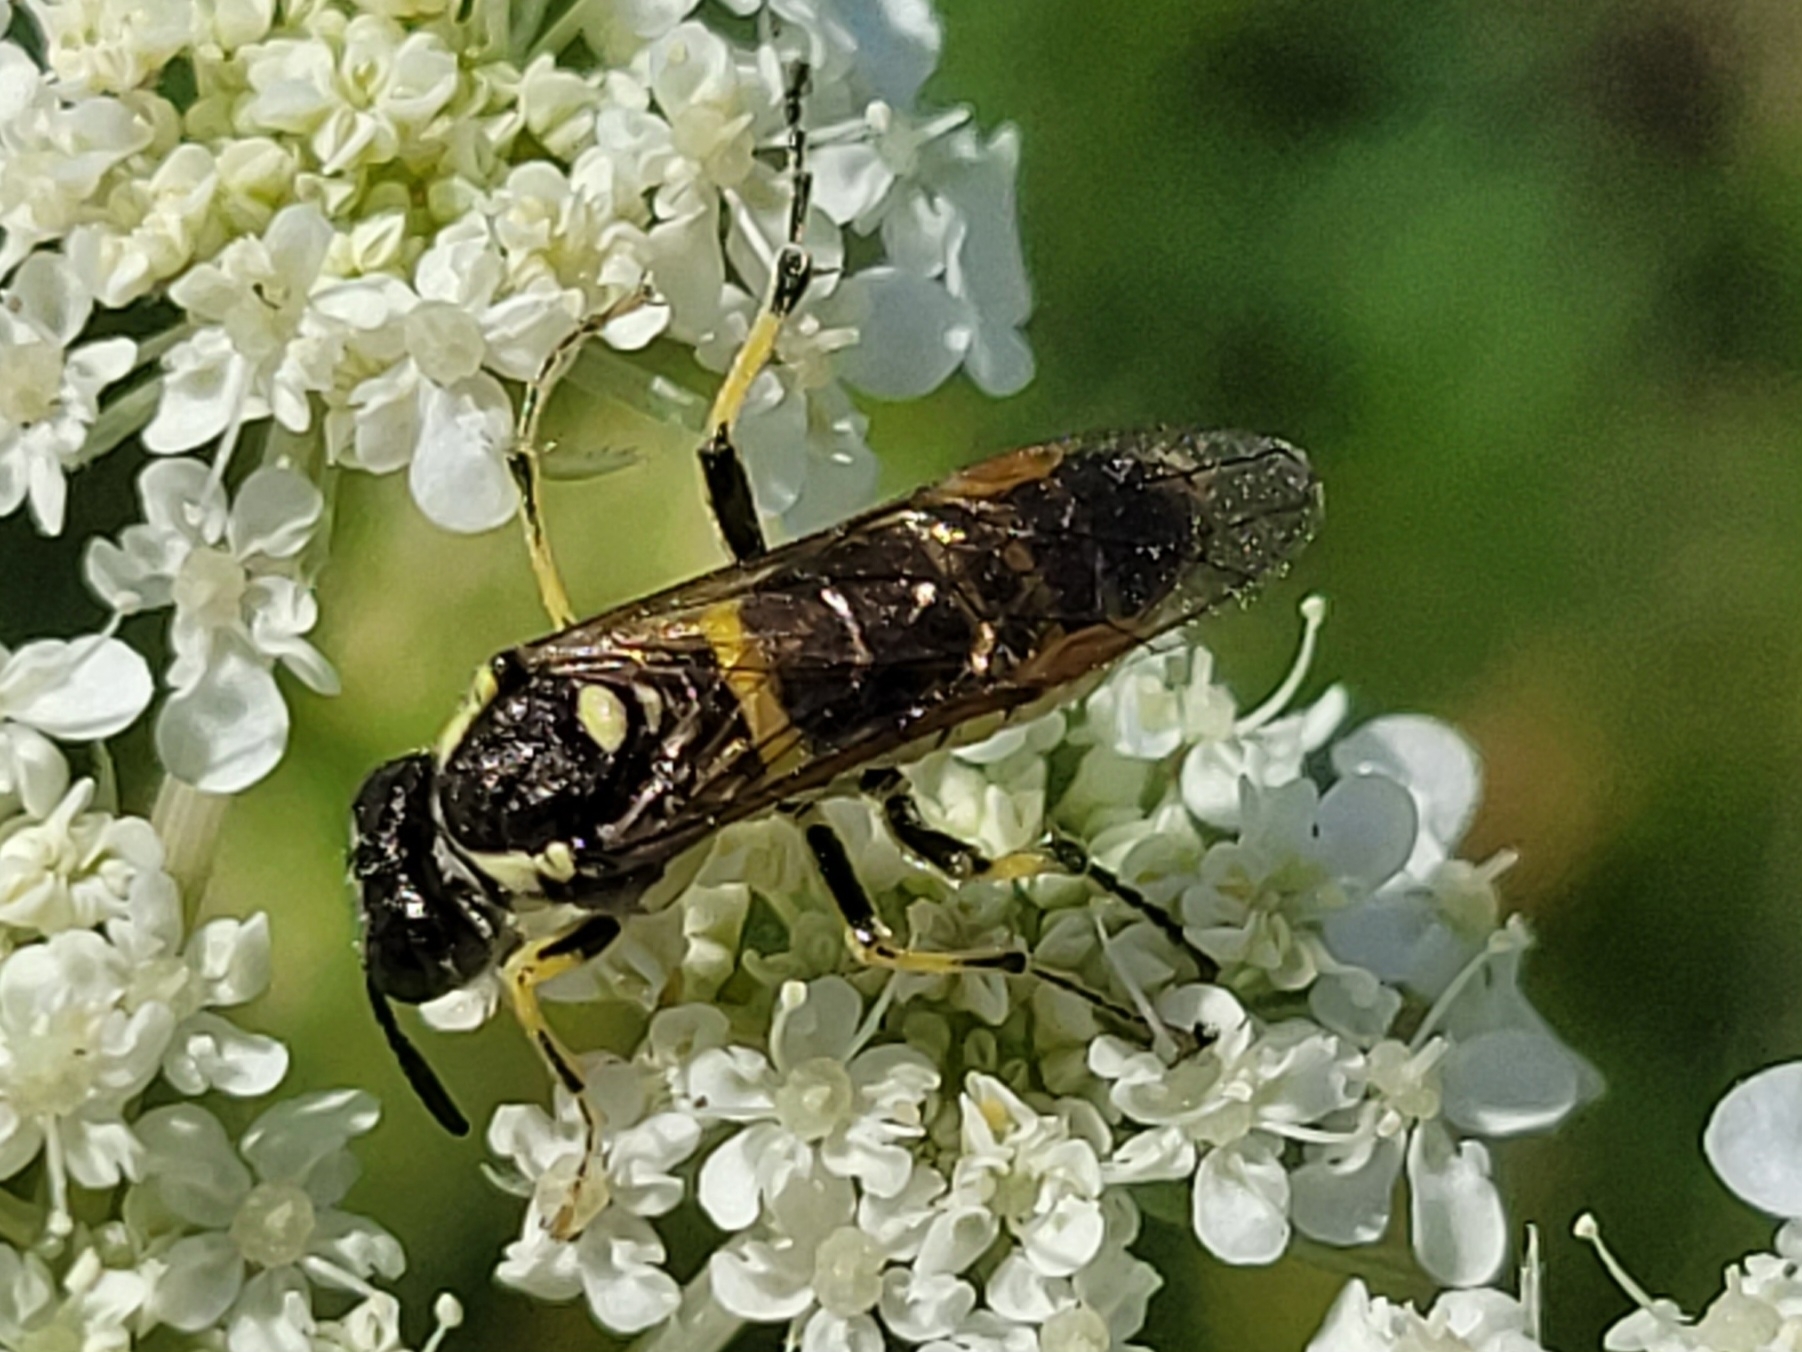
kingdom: Animalia
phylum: Arthropoda
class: Insecta
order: Hymenoptera
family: Tenthredinidae
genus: Tenthredo
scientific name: Tenthredo notha
